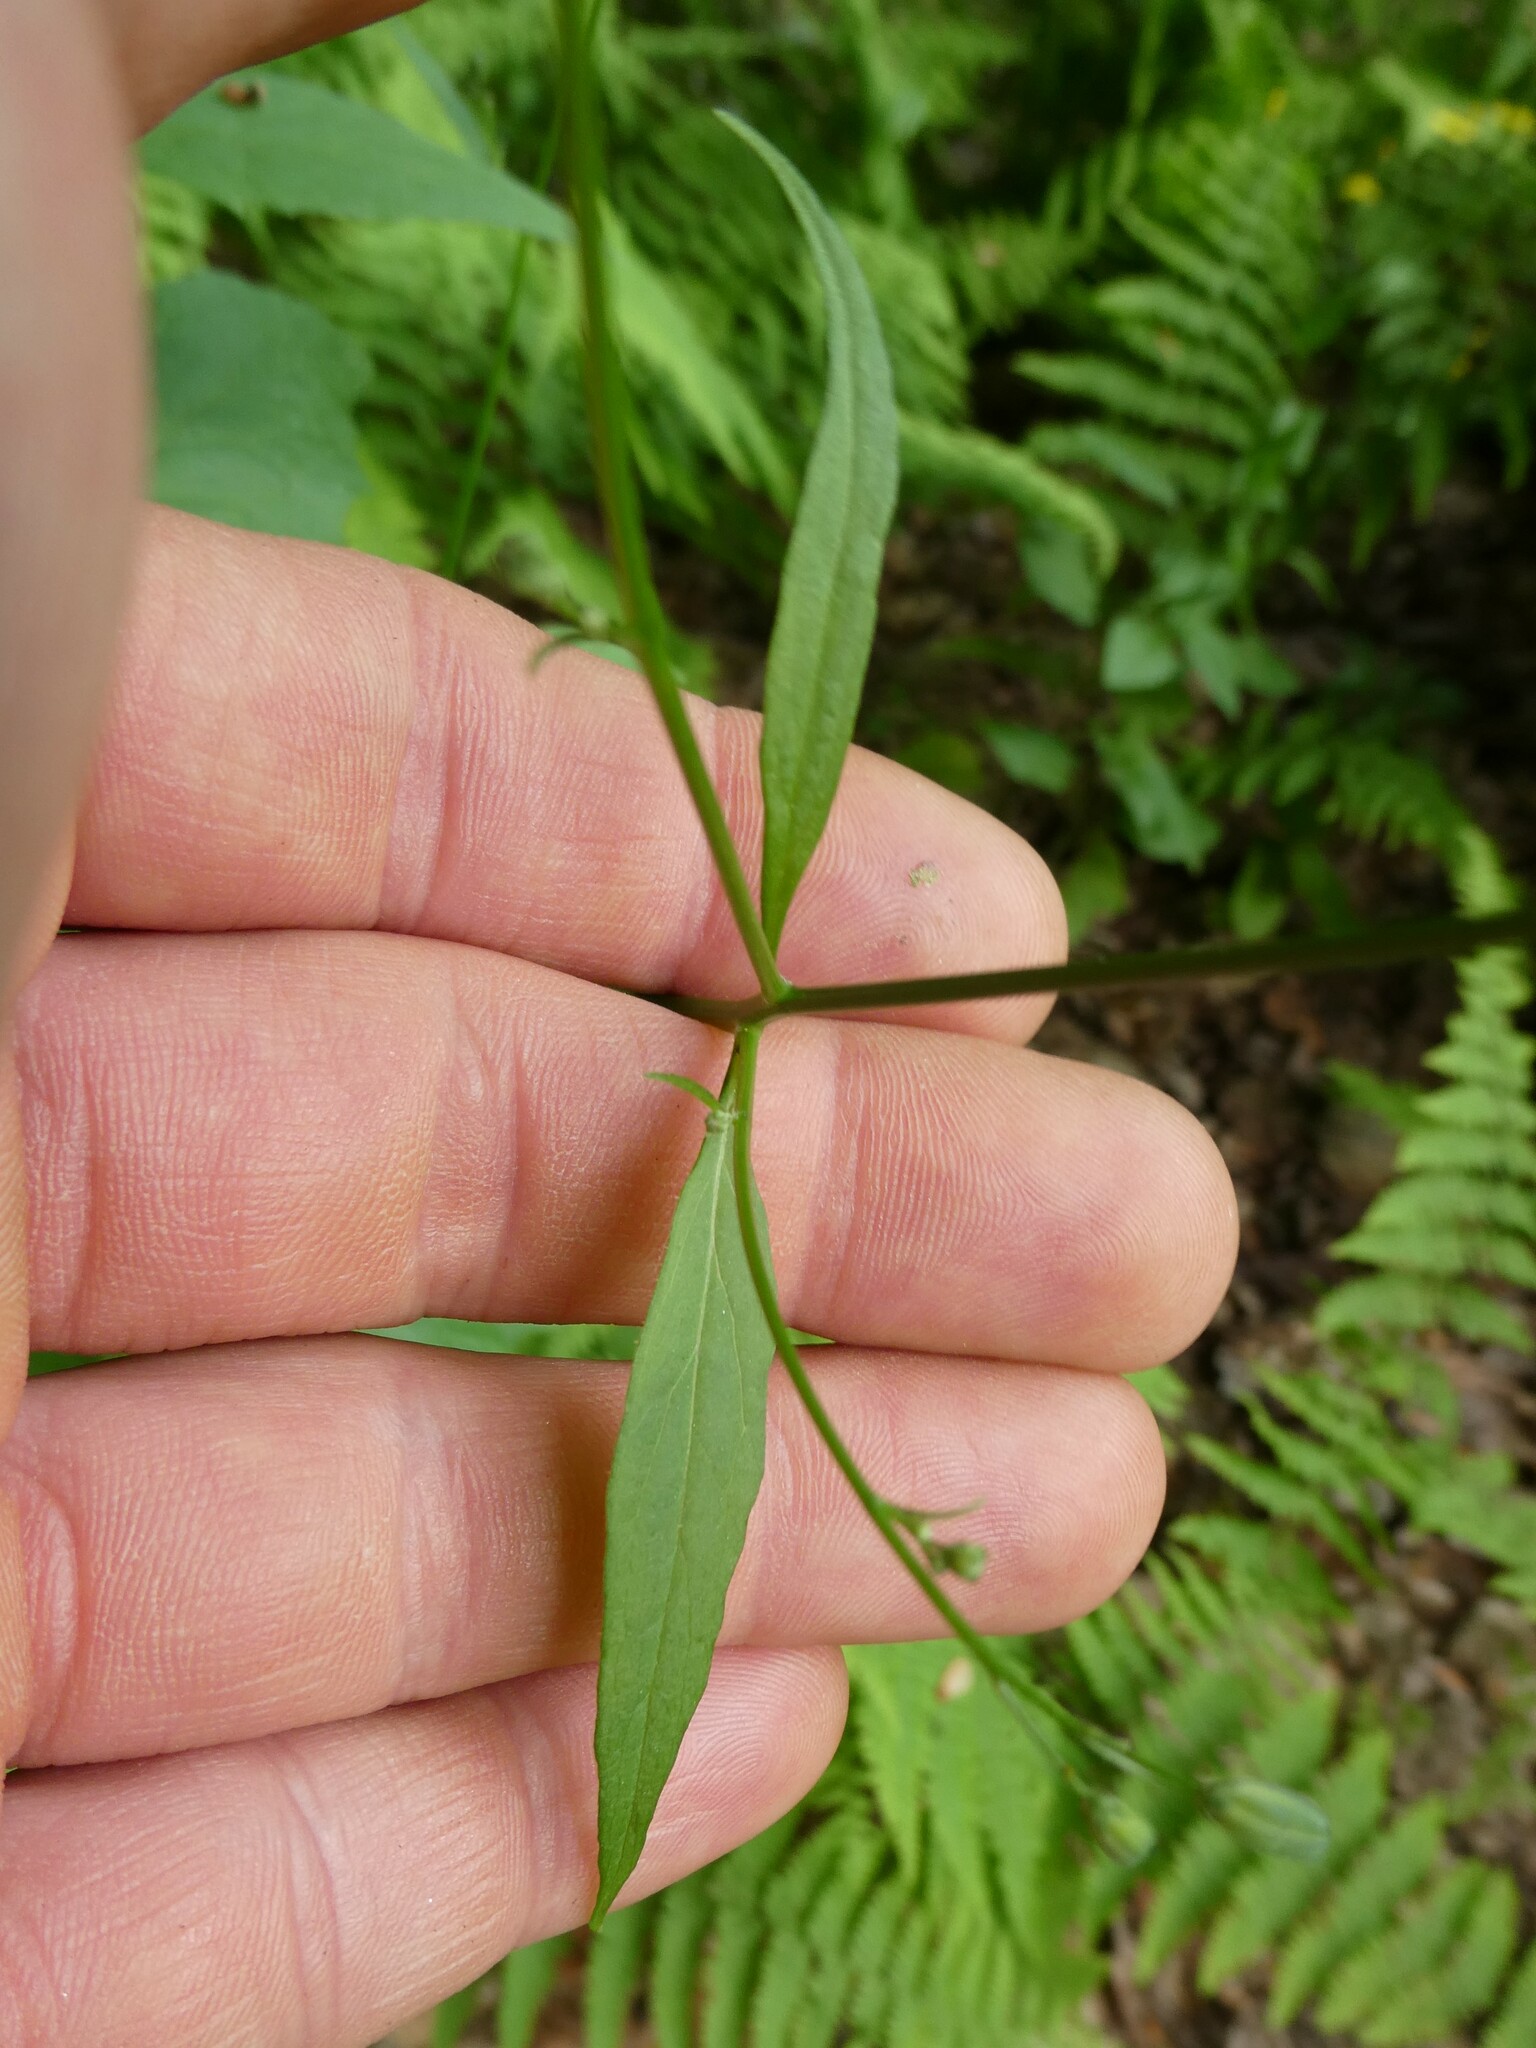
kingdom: Plantae
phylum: Tracheophyta
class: Magnoliopsida
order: Asterales
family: Asteraceae
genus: Lapsana
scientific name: Lapsana communis
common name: Nipplewort
